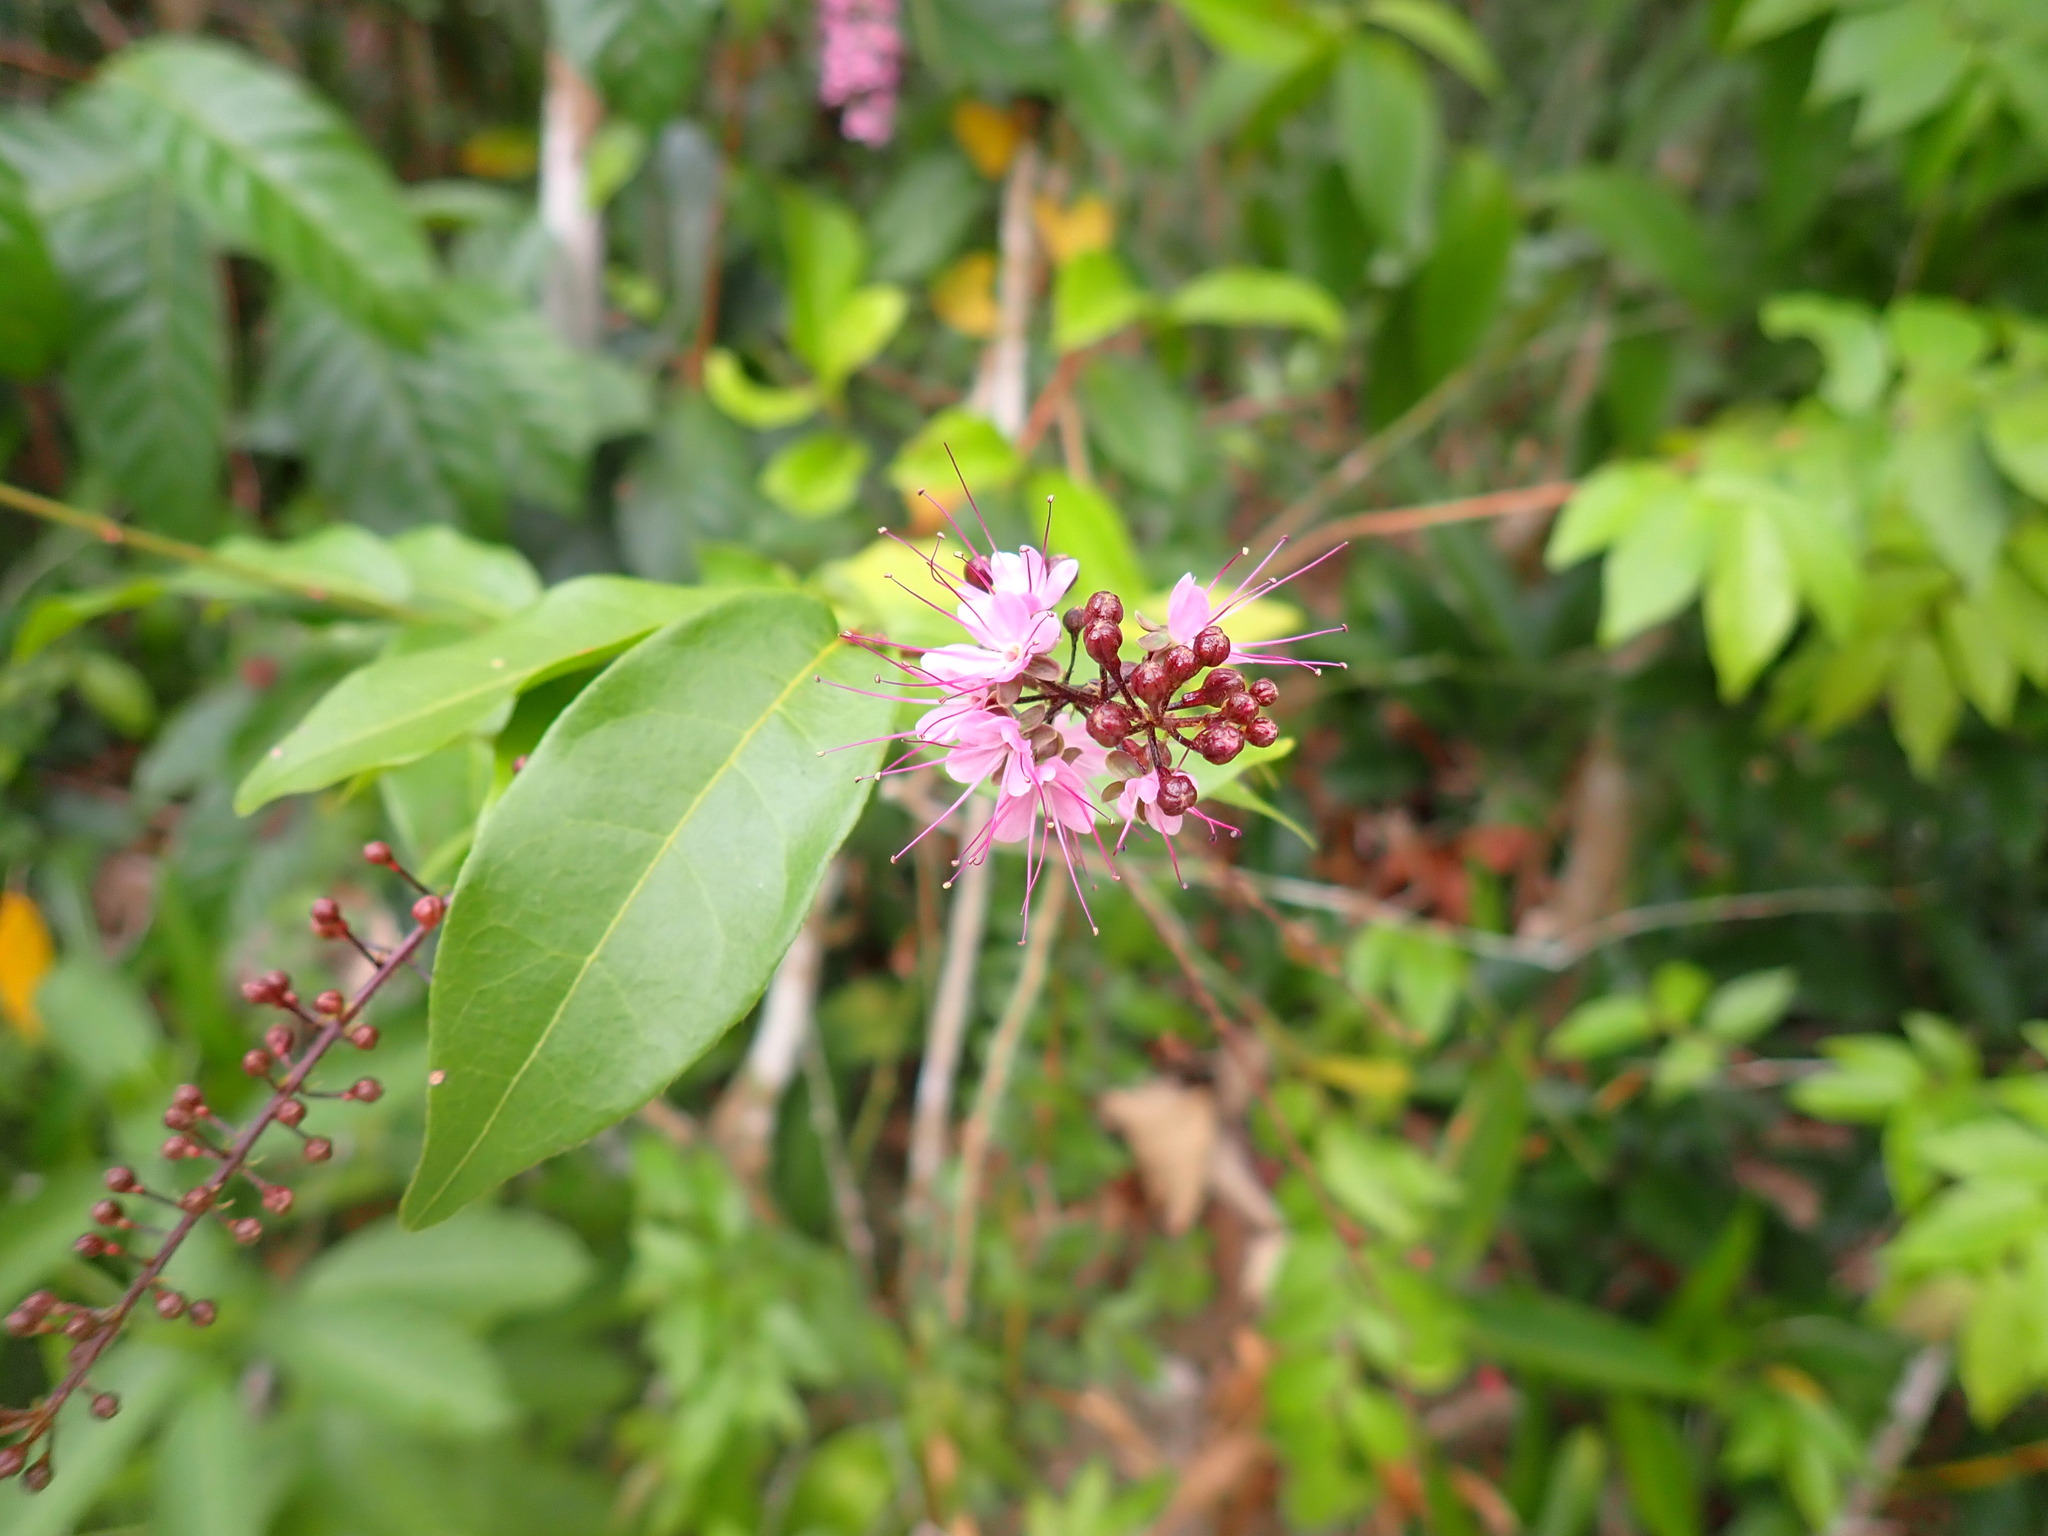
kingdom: Plantae
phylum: Tracheophyta
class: Magnoliopsida
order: Malpighiales
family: Chrysobalanaceae
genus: Hirtella
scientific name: Hirtella racemosa
